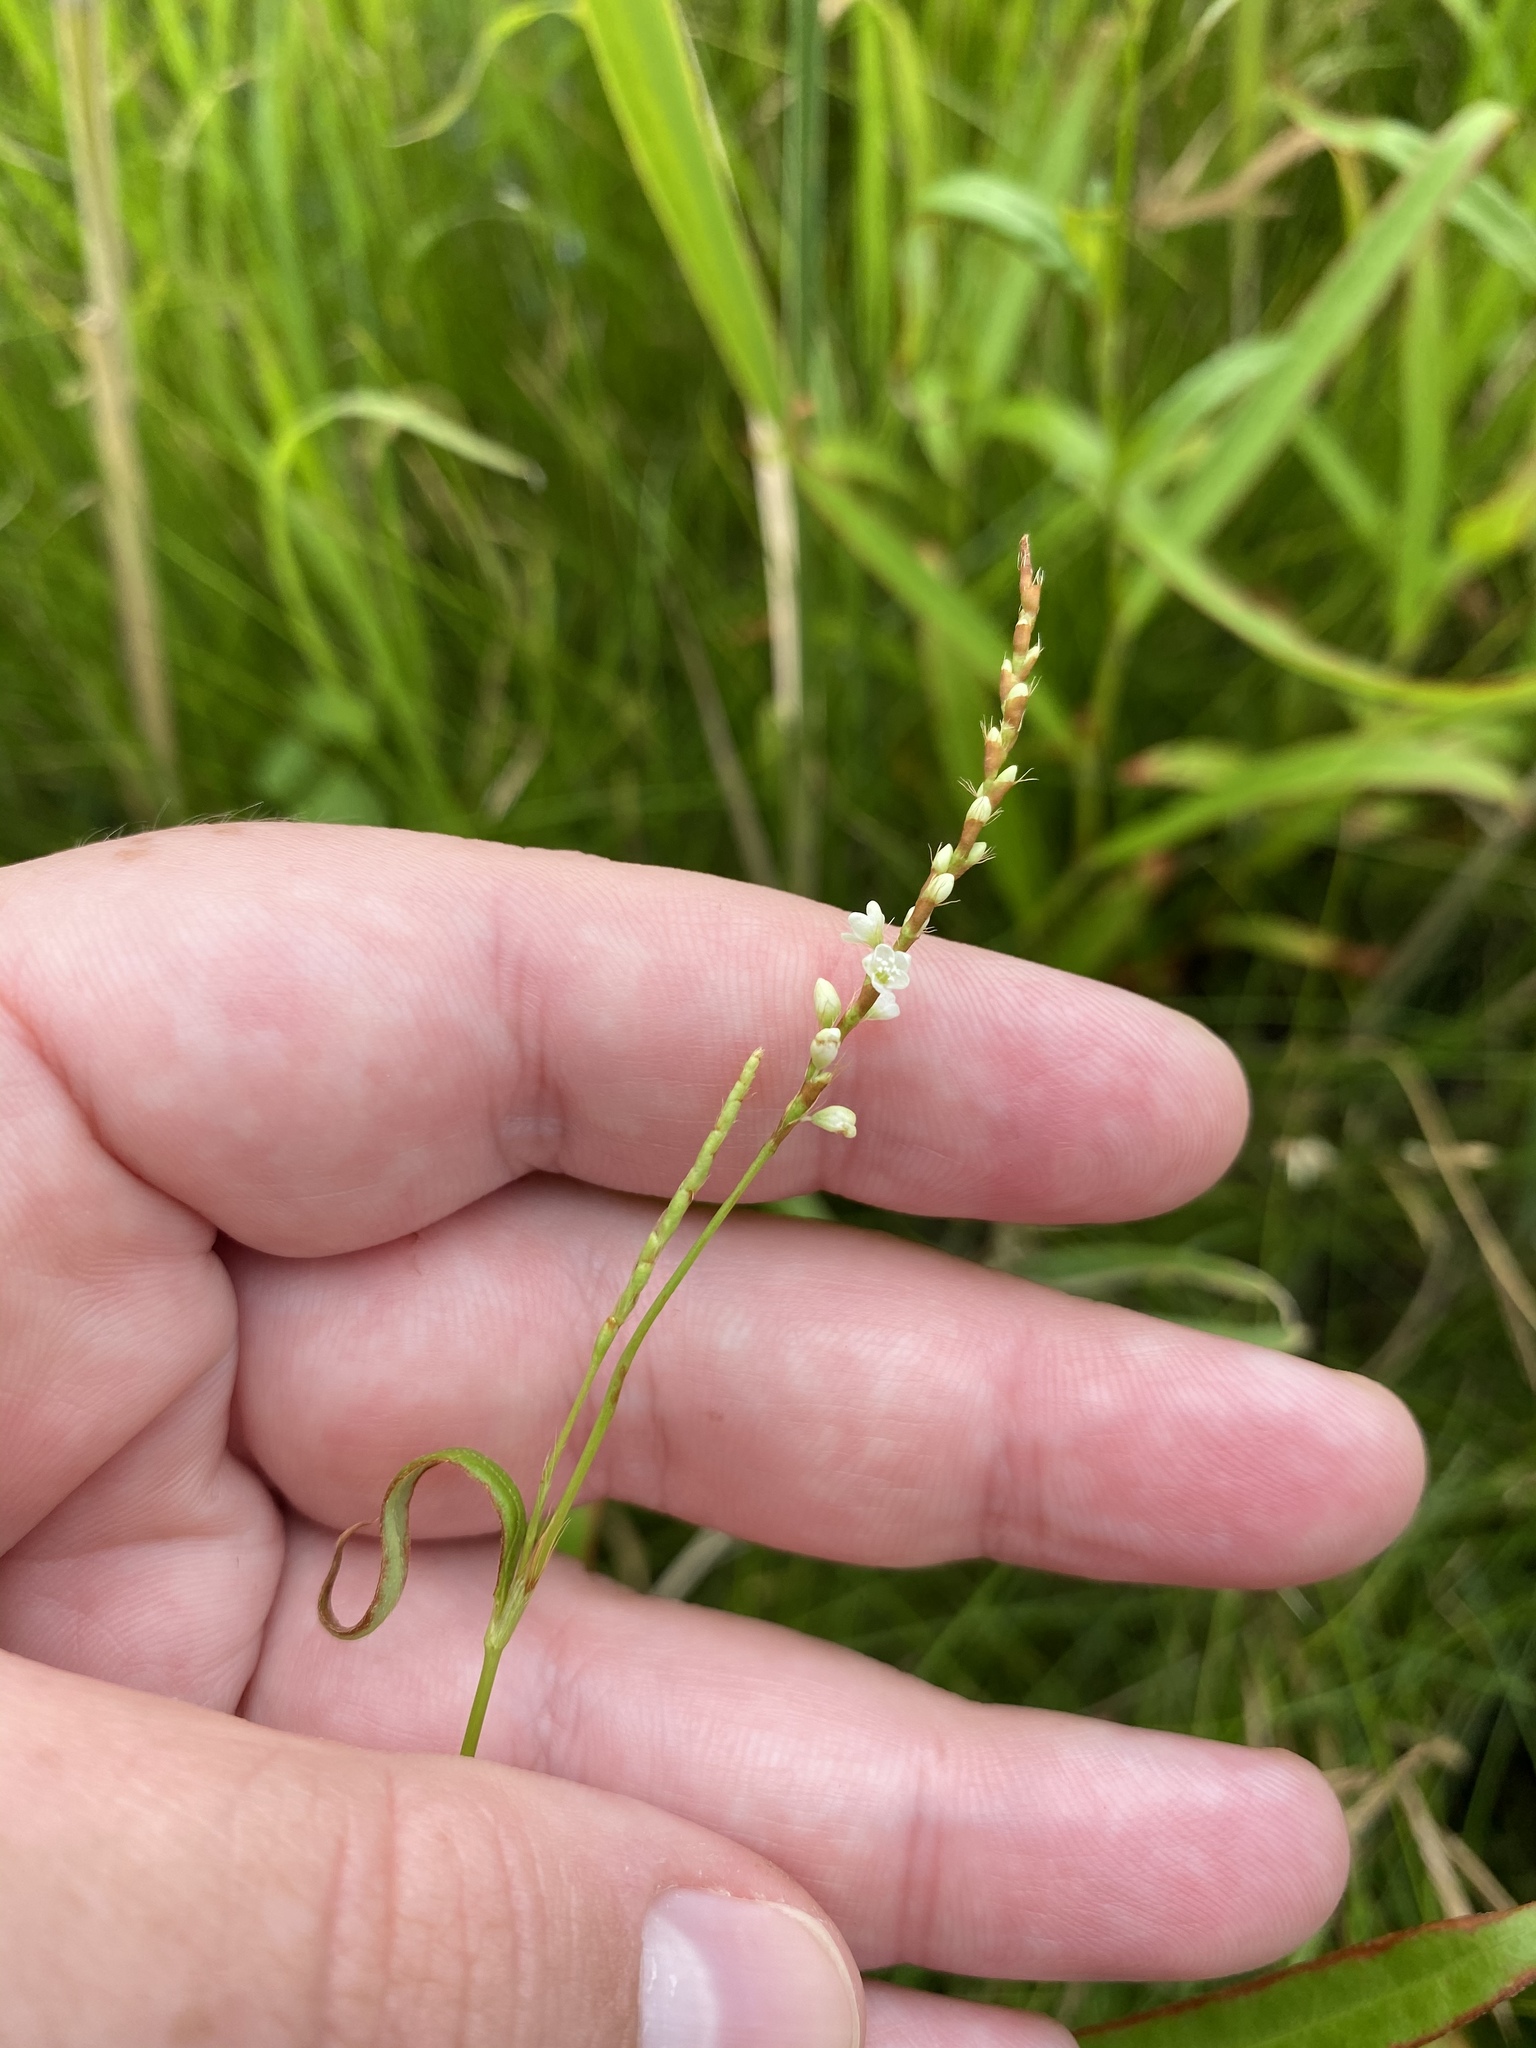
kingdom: Plantae
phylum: Tracheophyta
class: Magnoliopsida
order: Caryophyllales
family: Polygonaceae
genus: Persicaria
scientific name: Persicaria punctata
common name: Dotted smartweed
